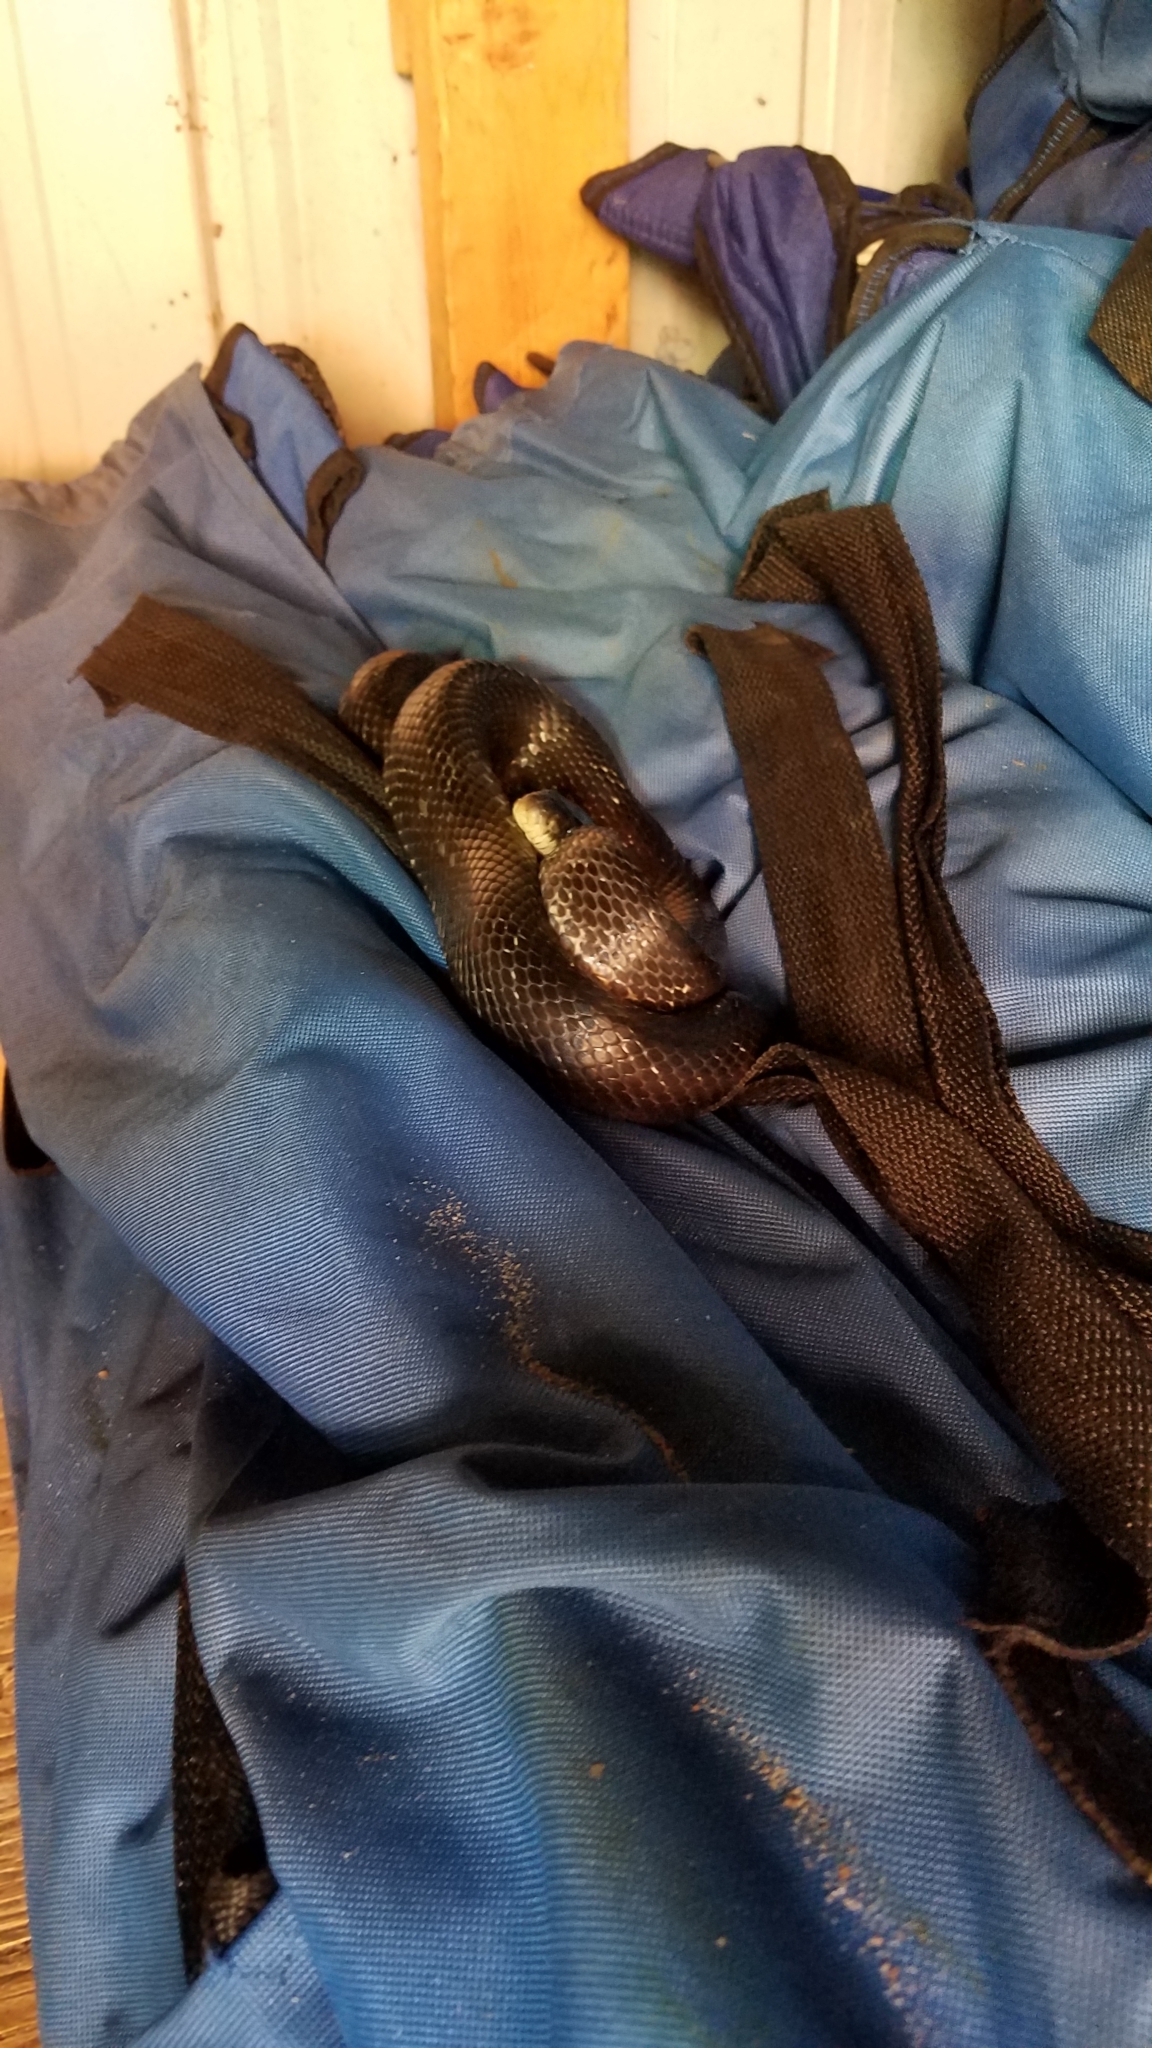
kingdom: Animalia
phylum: Chordata
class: Squamata
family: Colubridae
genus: Pantherophis
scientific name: Pantherophis alleghaniensis
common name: Eastern rat snake
